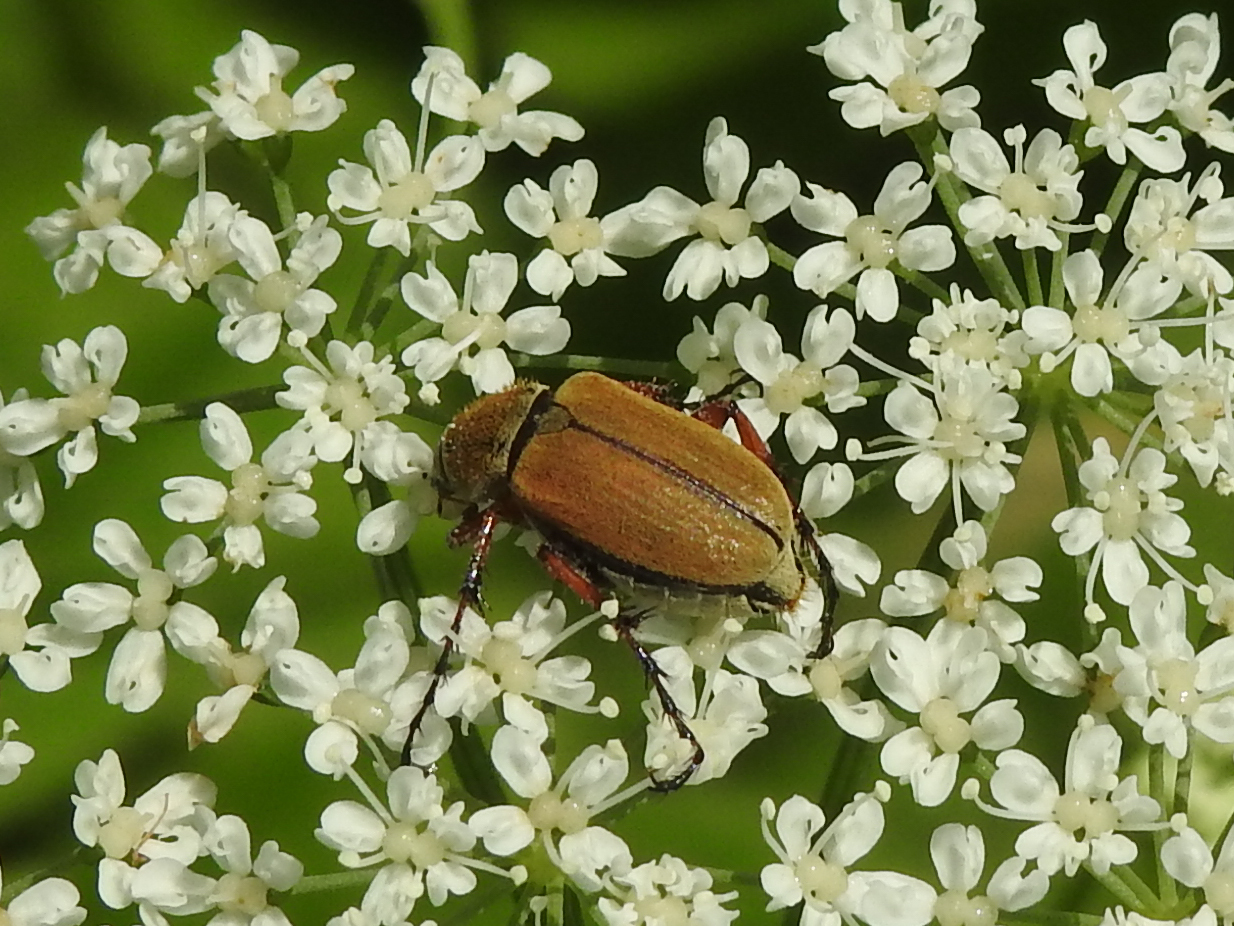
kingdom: Animalia
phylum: Arthropoda
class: Insecta
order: Coleoptera
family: Scarabaeidae
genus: Macrodactylus
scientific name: Macrodactylus subspinosus
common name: American rose chafer
